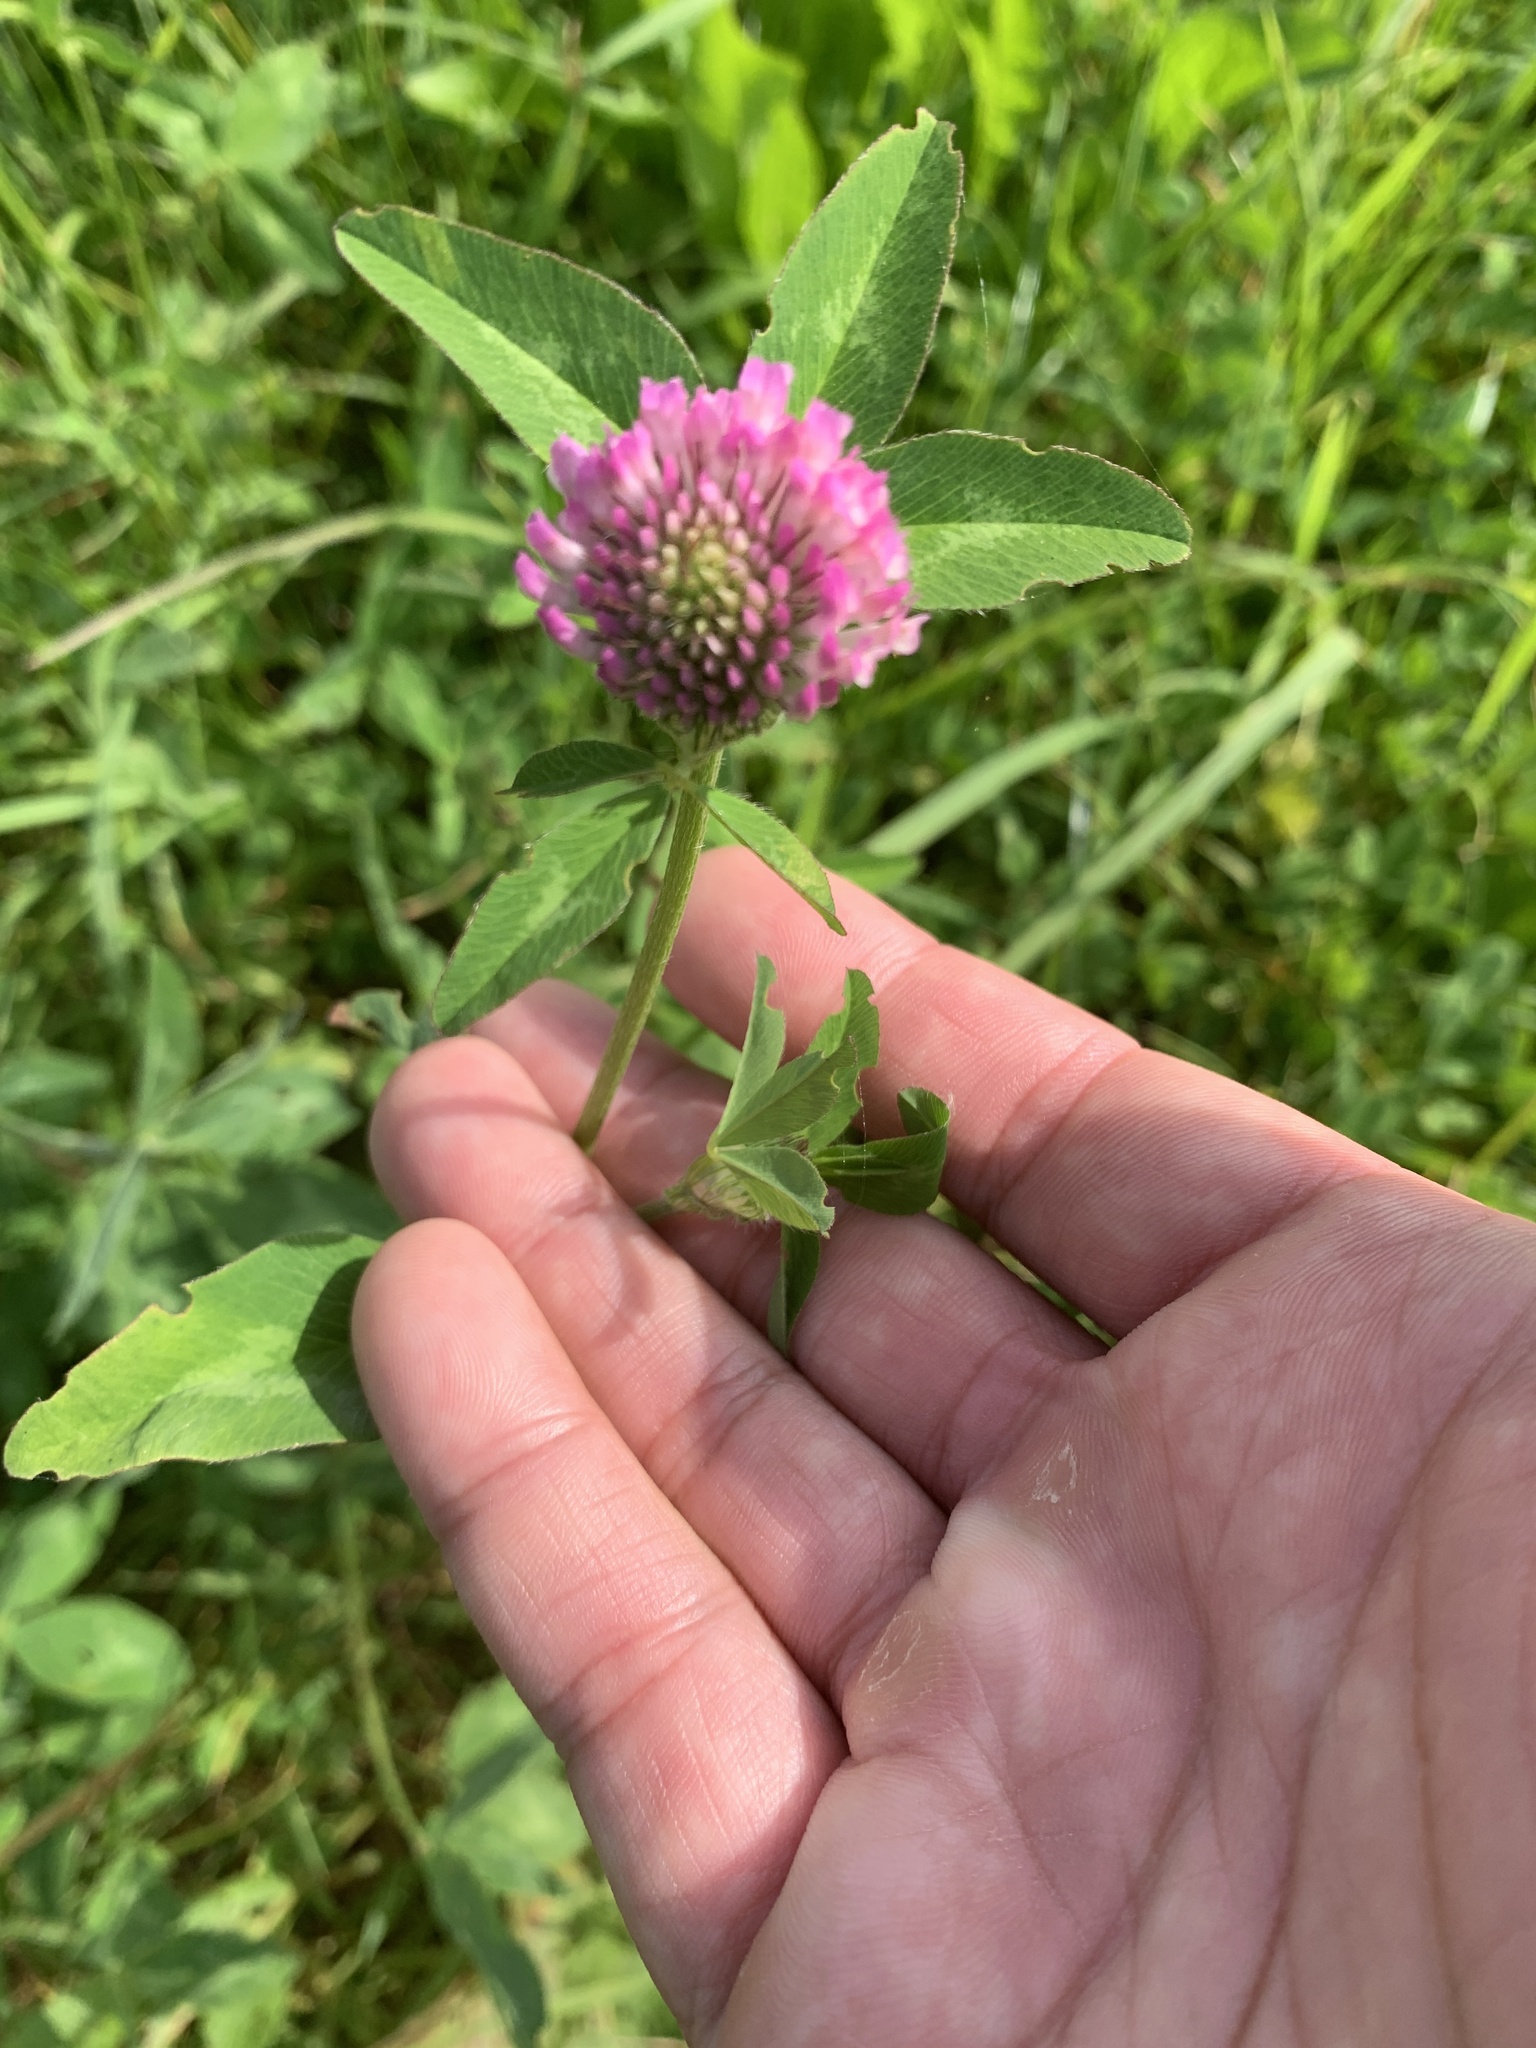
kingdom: Plantae
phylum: Tracheophyta
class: Magnoliopsida
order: Fabales
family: Fabaceae
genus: Trifolium
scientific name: Trifolium pratense
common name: Red clover
